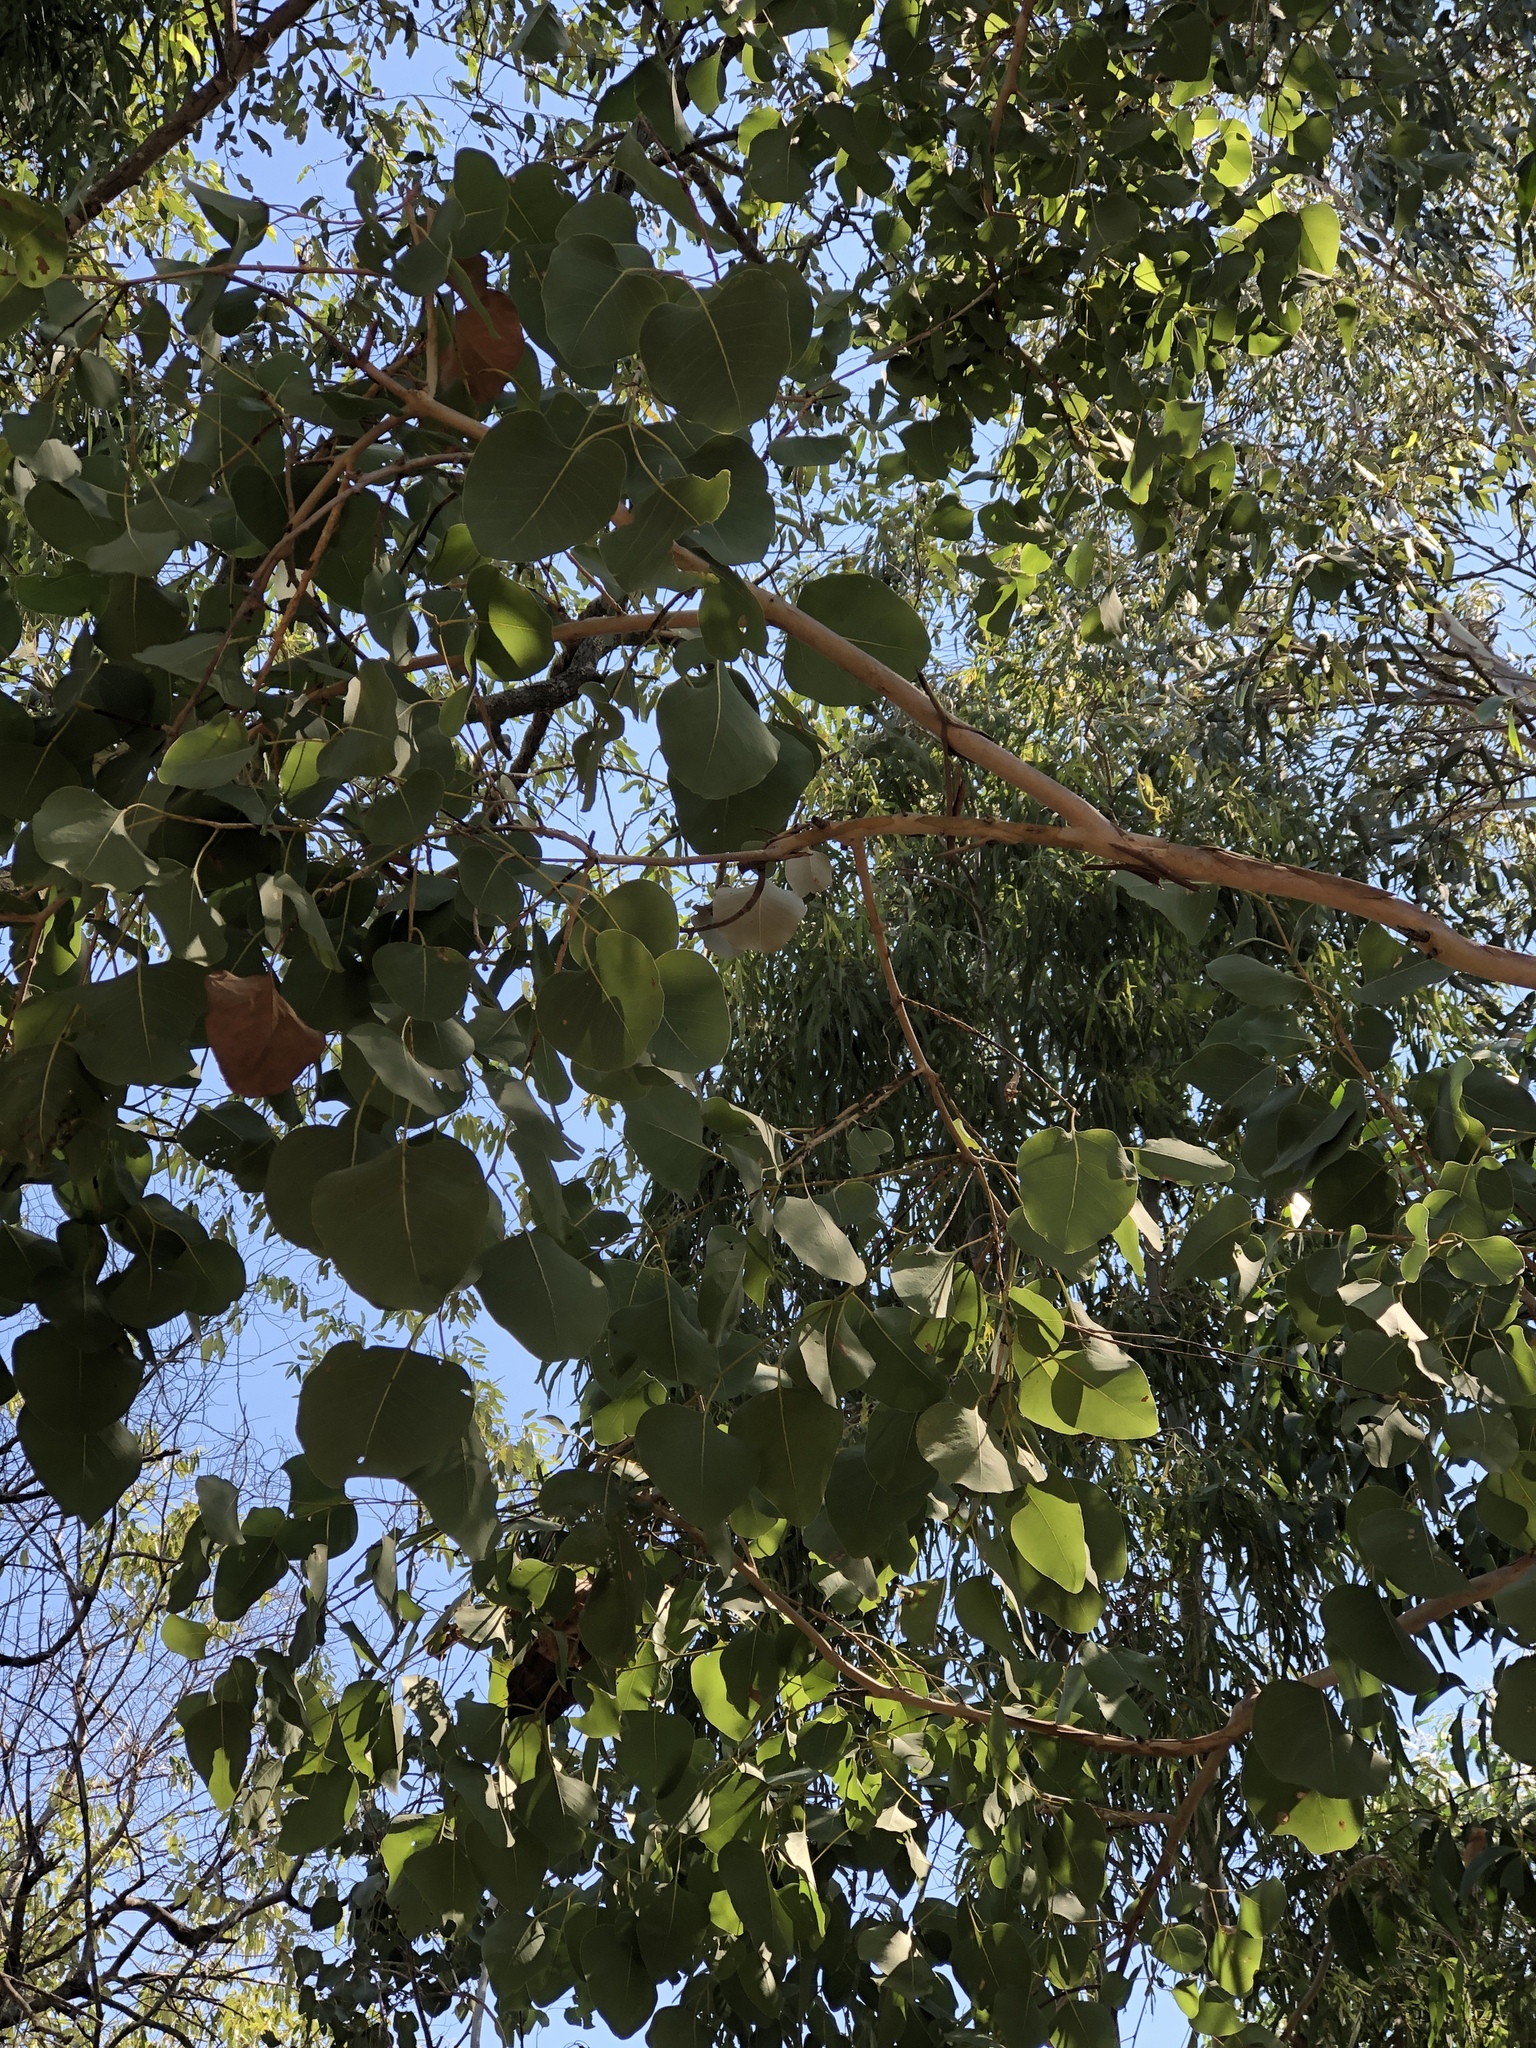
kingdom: Plantae
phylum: Tracheophyta
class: Magnoliopsida
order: Myrtales
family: Myrtaceae
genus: Eucalyptus
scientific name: Eucalyptus platyphylla
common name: Poplar-gum
